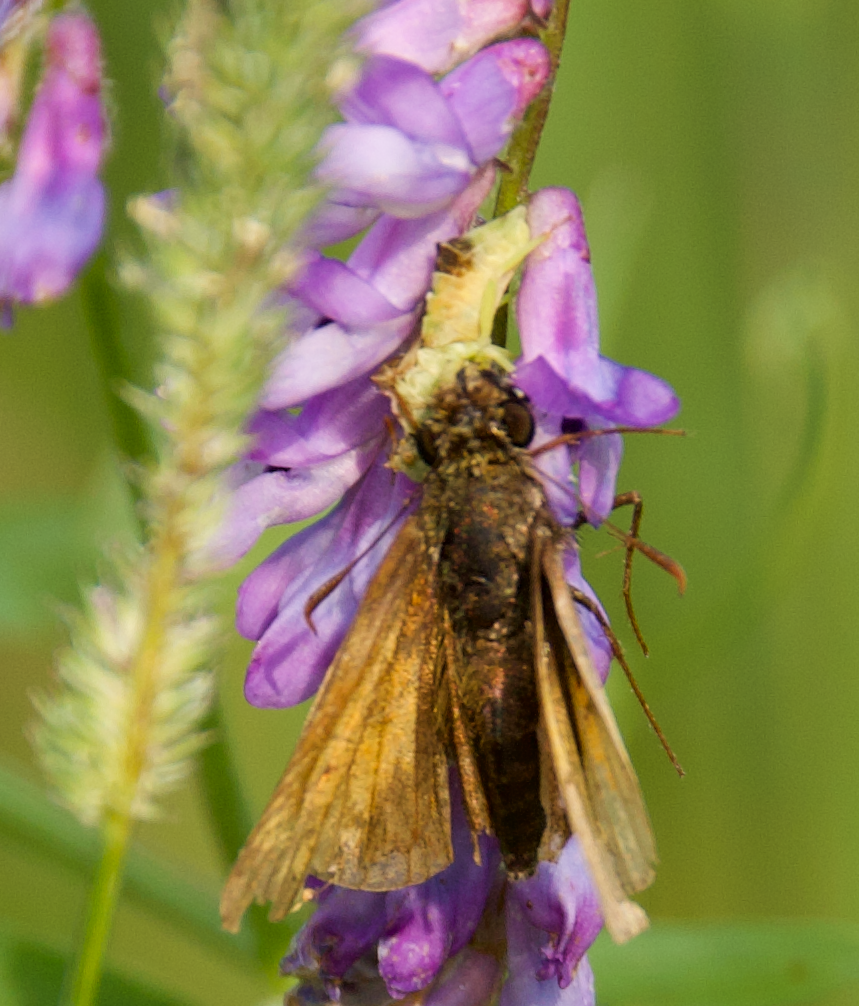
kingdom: Animalia
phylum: Arthropoda
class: Insecta
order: Hemiptera
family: Reduviidae
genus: Phymata
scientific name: Phymata americana
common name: Jagged ambush bug
